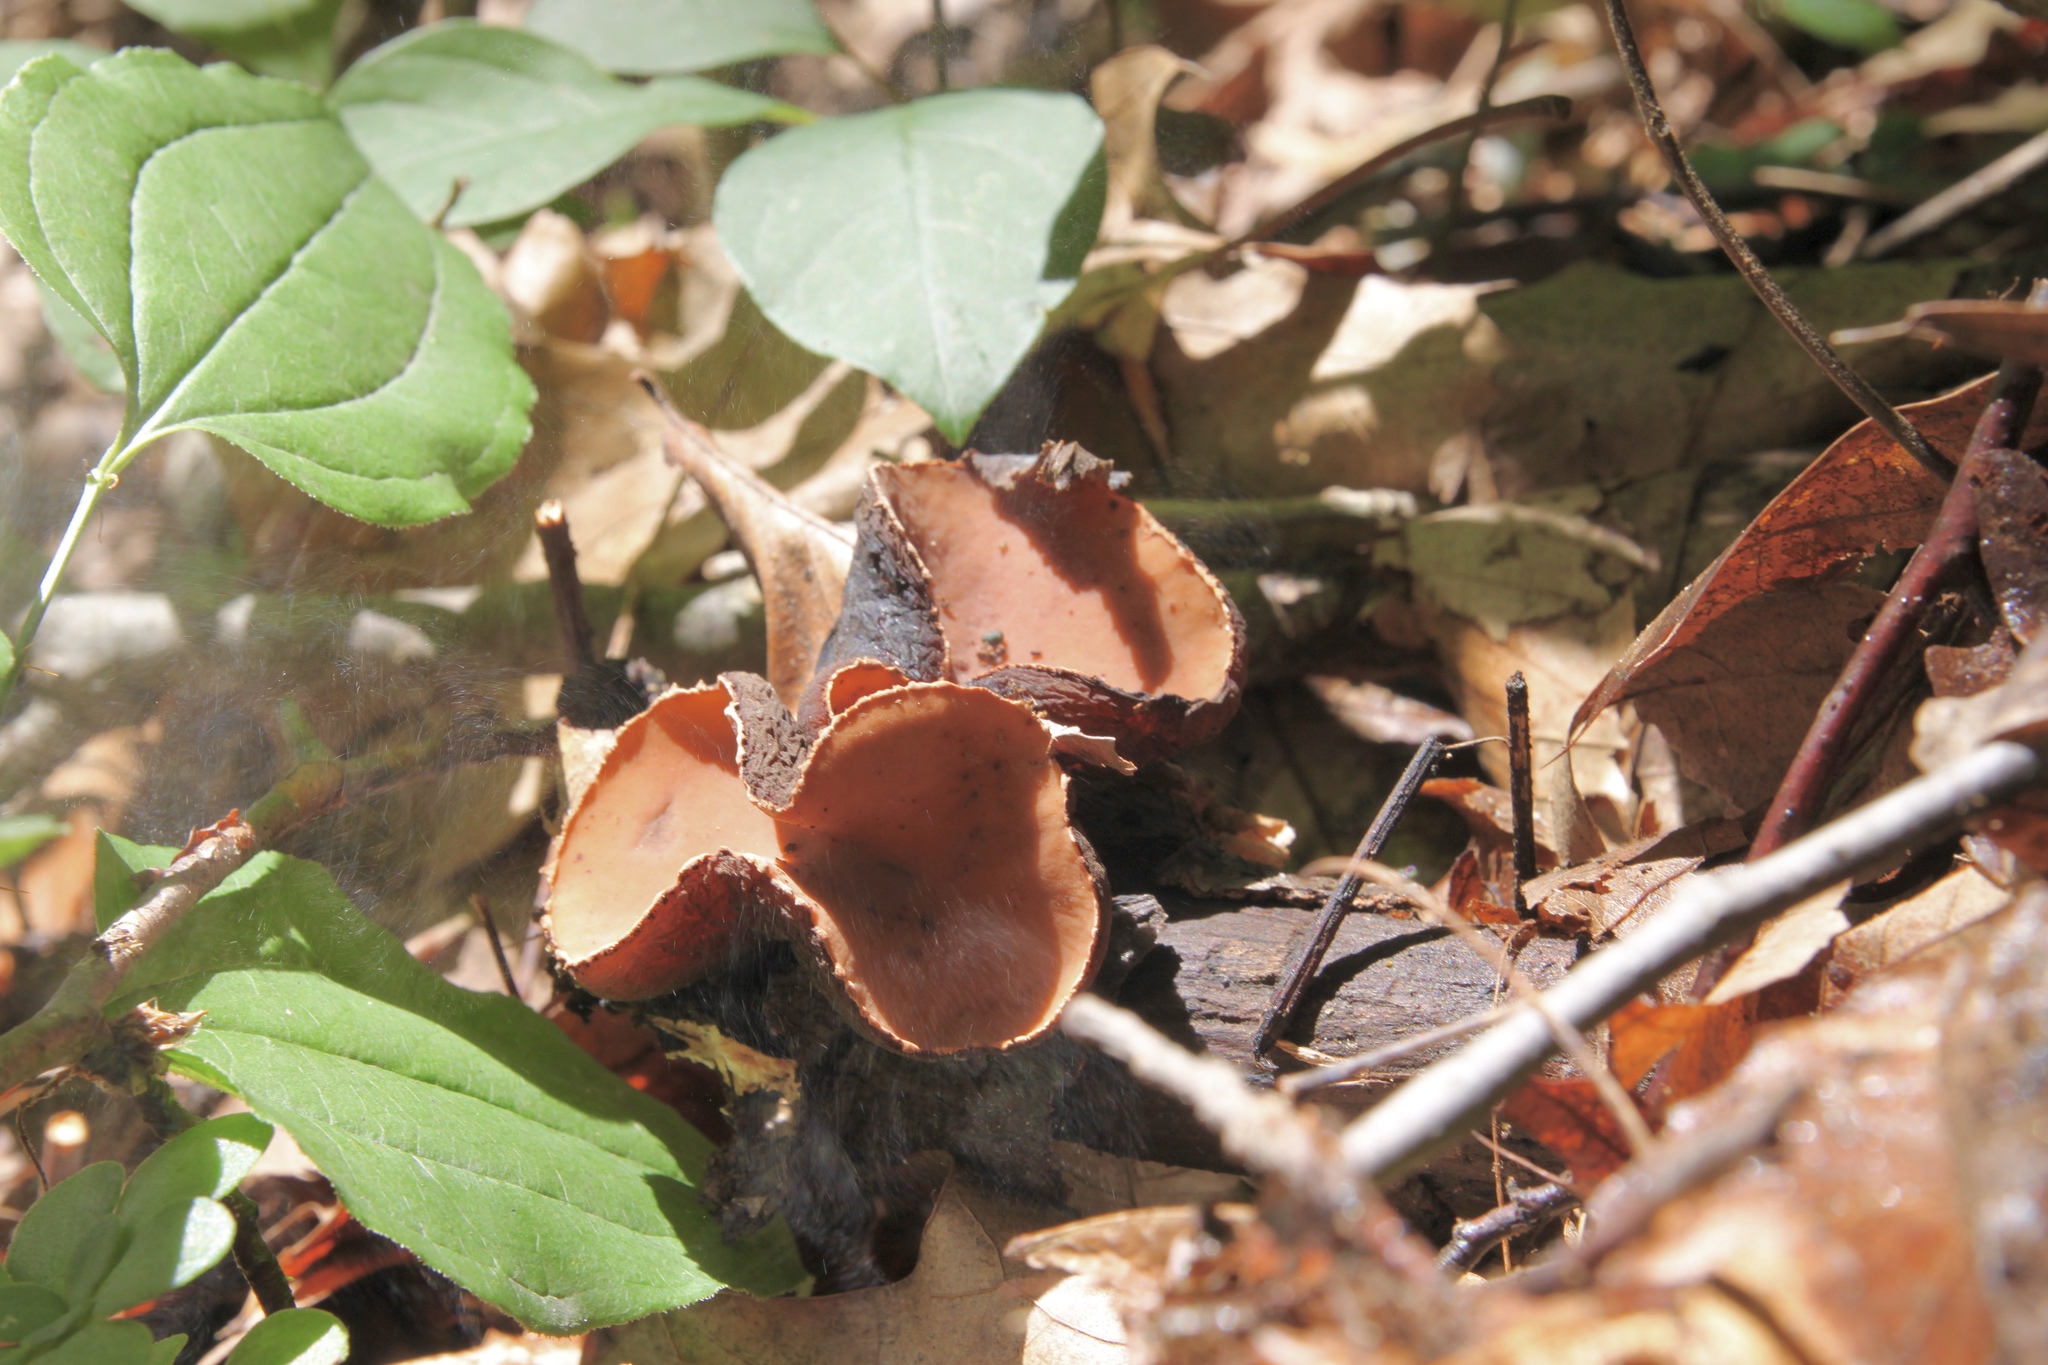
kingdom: Fungi
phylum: Ascomycota
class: Pezizomycetes
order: Pezizales
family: Sarcosomataceae
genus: Galiella
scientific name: Galiella rufa
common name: Hairy rubber cup
